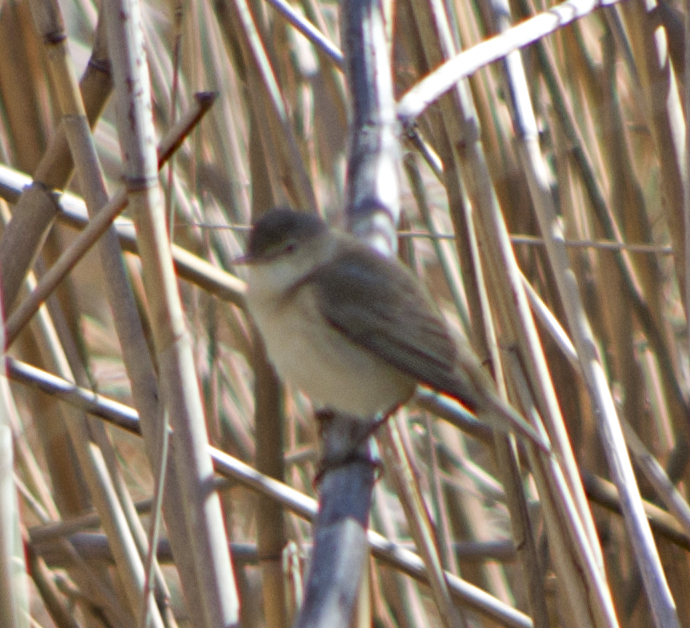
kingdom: Animalia
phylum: Chordata
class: Aves
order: Passeriformes
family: Acrocephalidae
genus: Acrocephalus
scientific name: Acrocephalus scirpaceus
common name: Eurasian reed warbler
